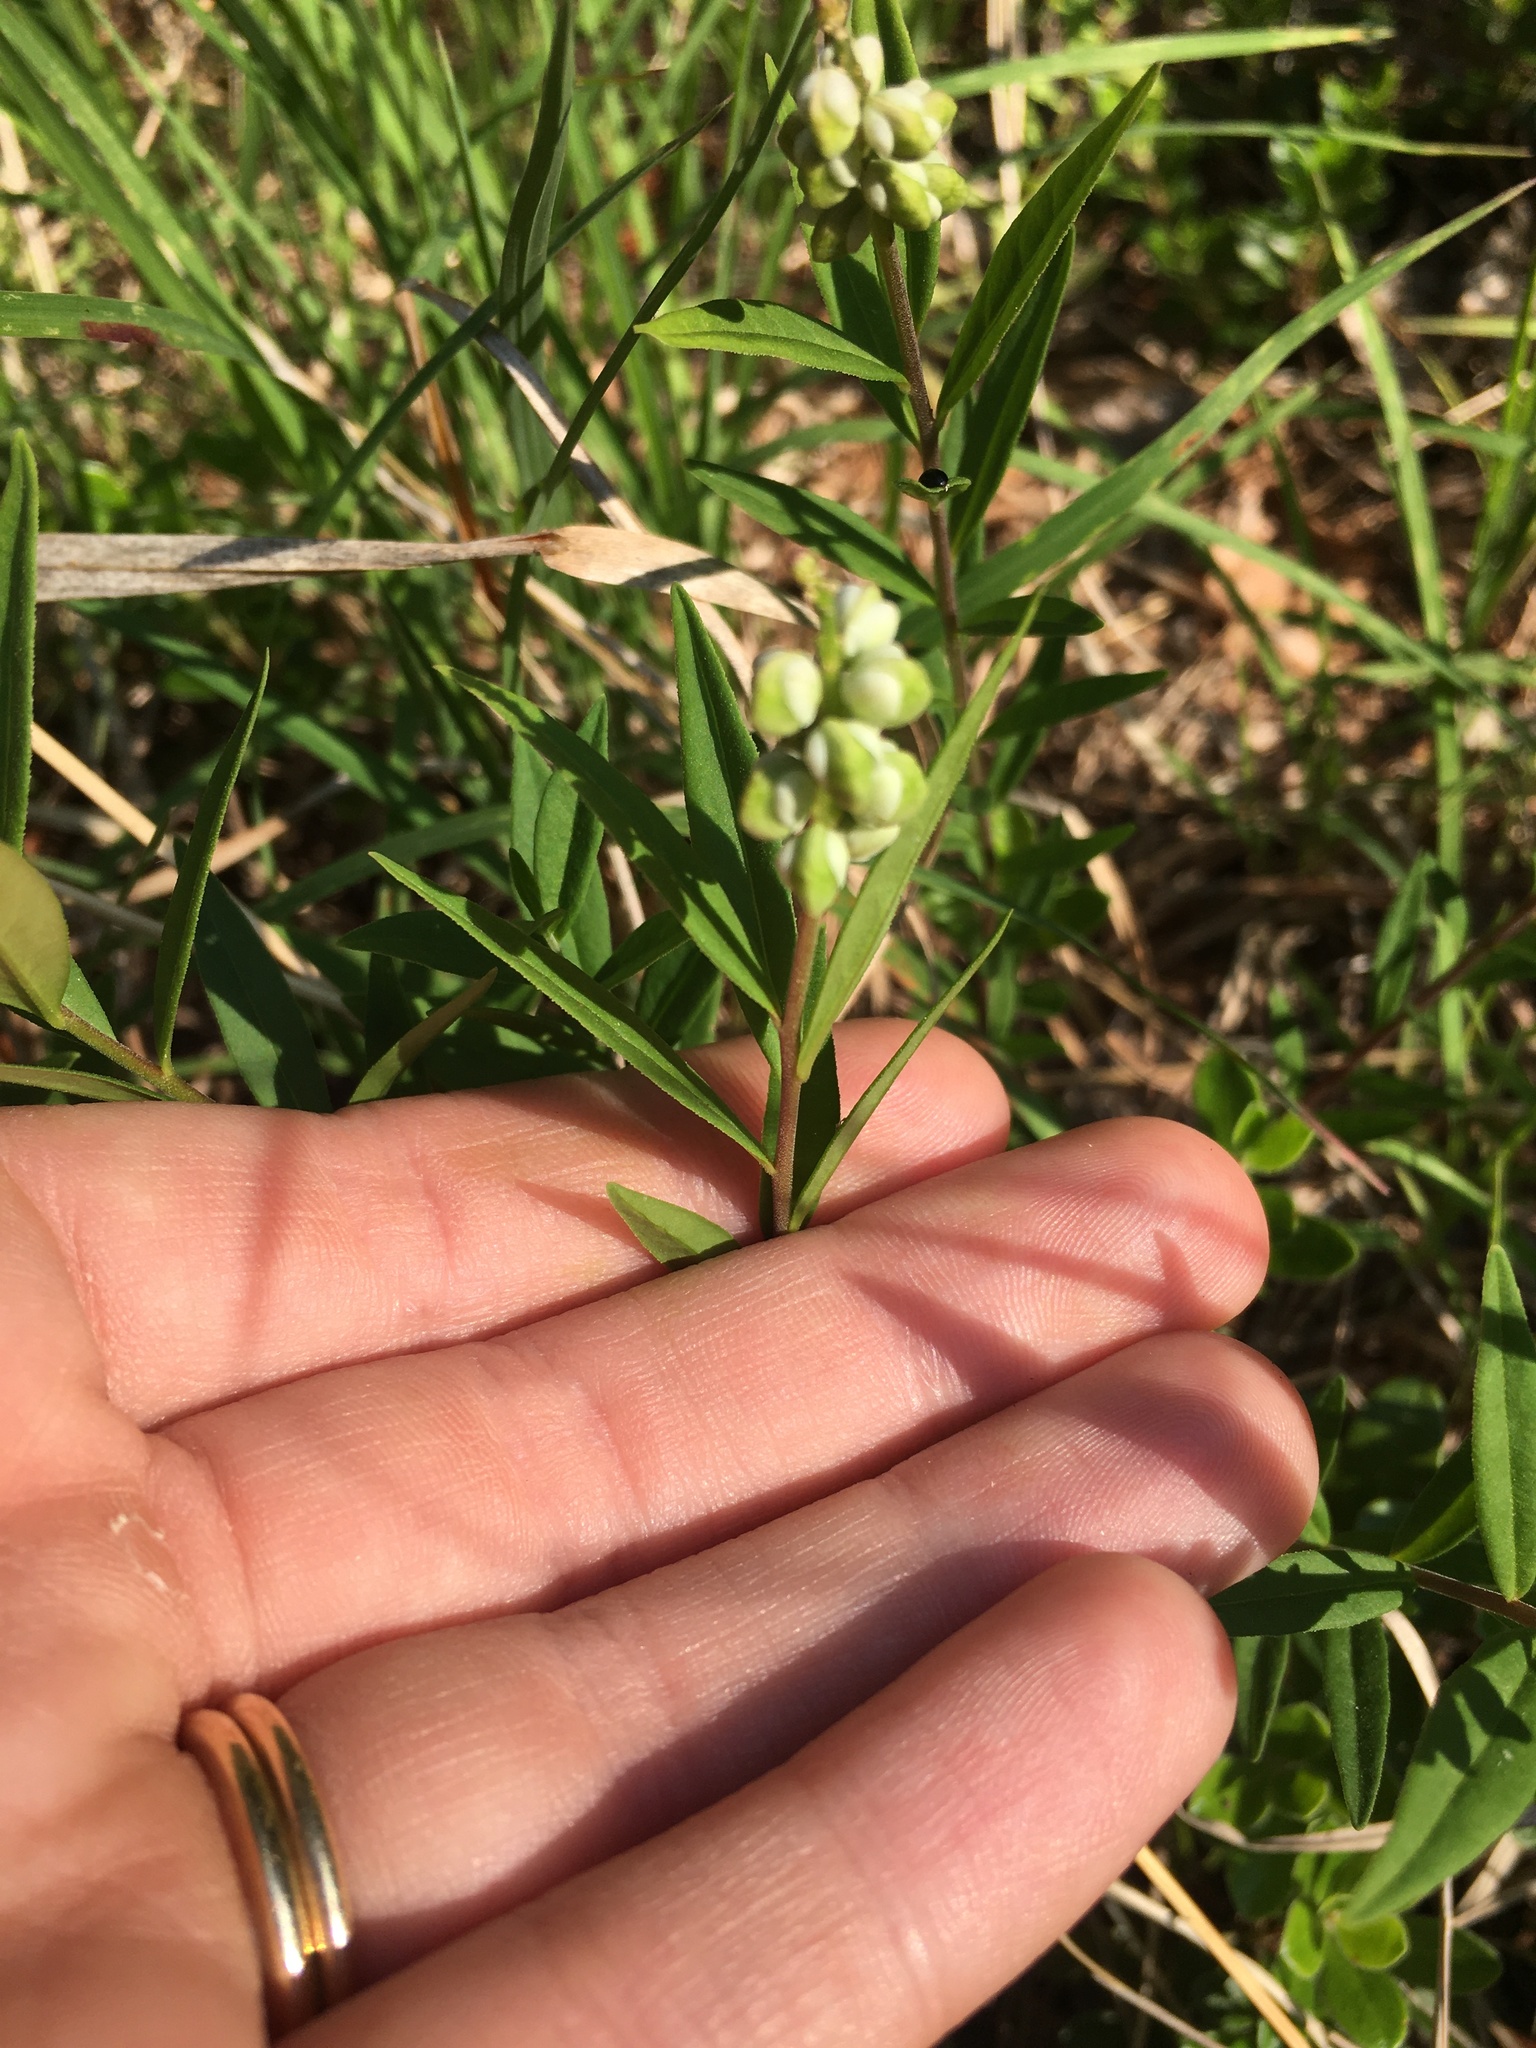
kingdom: Plantae
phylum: Tracheophyta
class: Magnoliopsida
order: Fabales
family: Polygalaceae
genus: Polygala
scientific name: Polygala senega
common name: Seneca snakeroot
